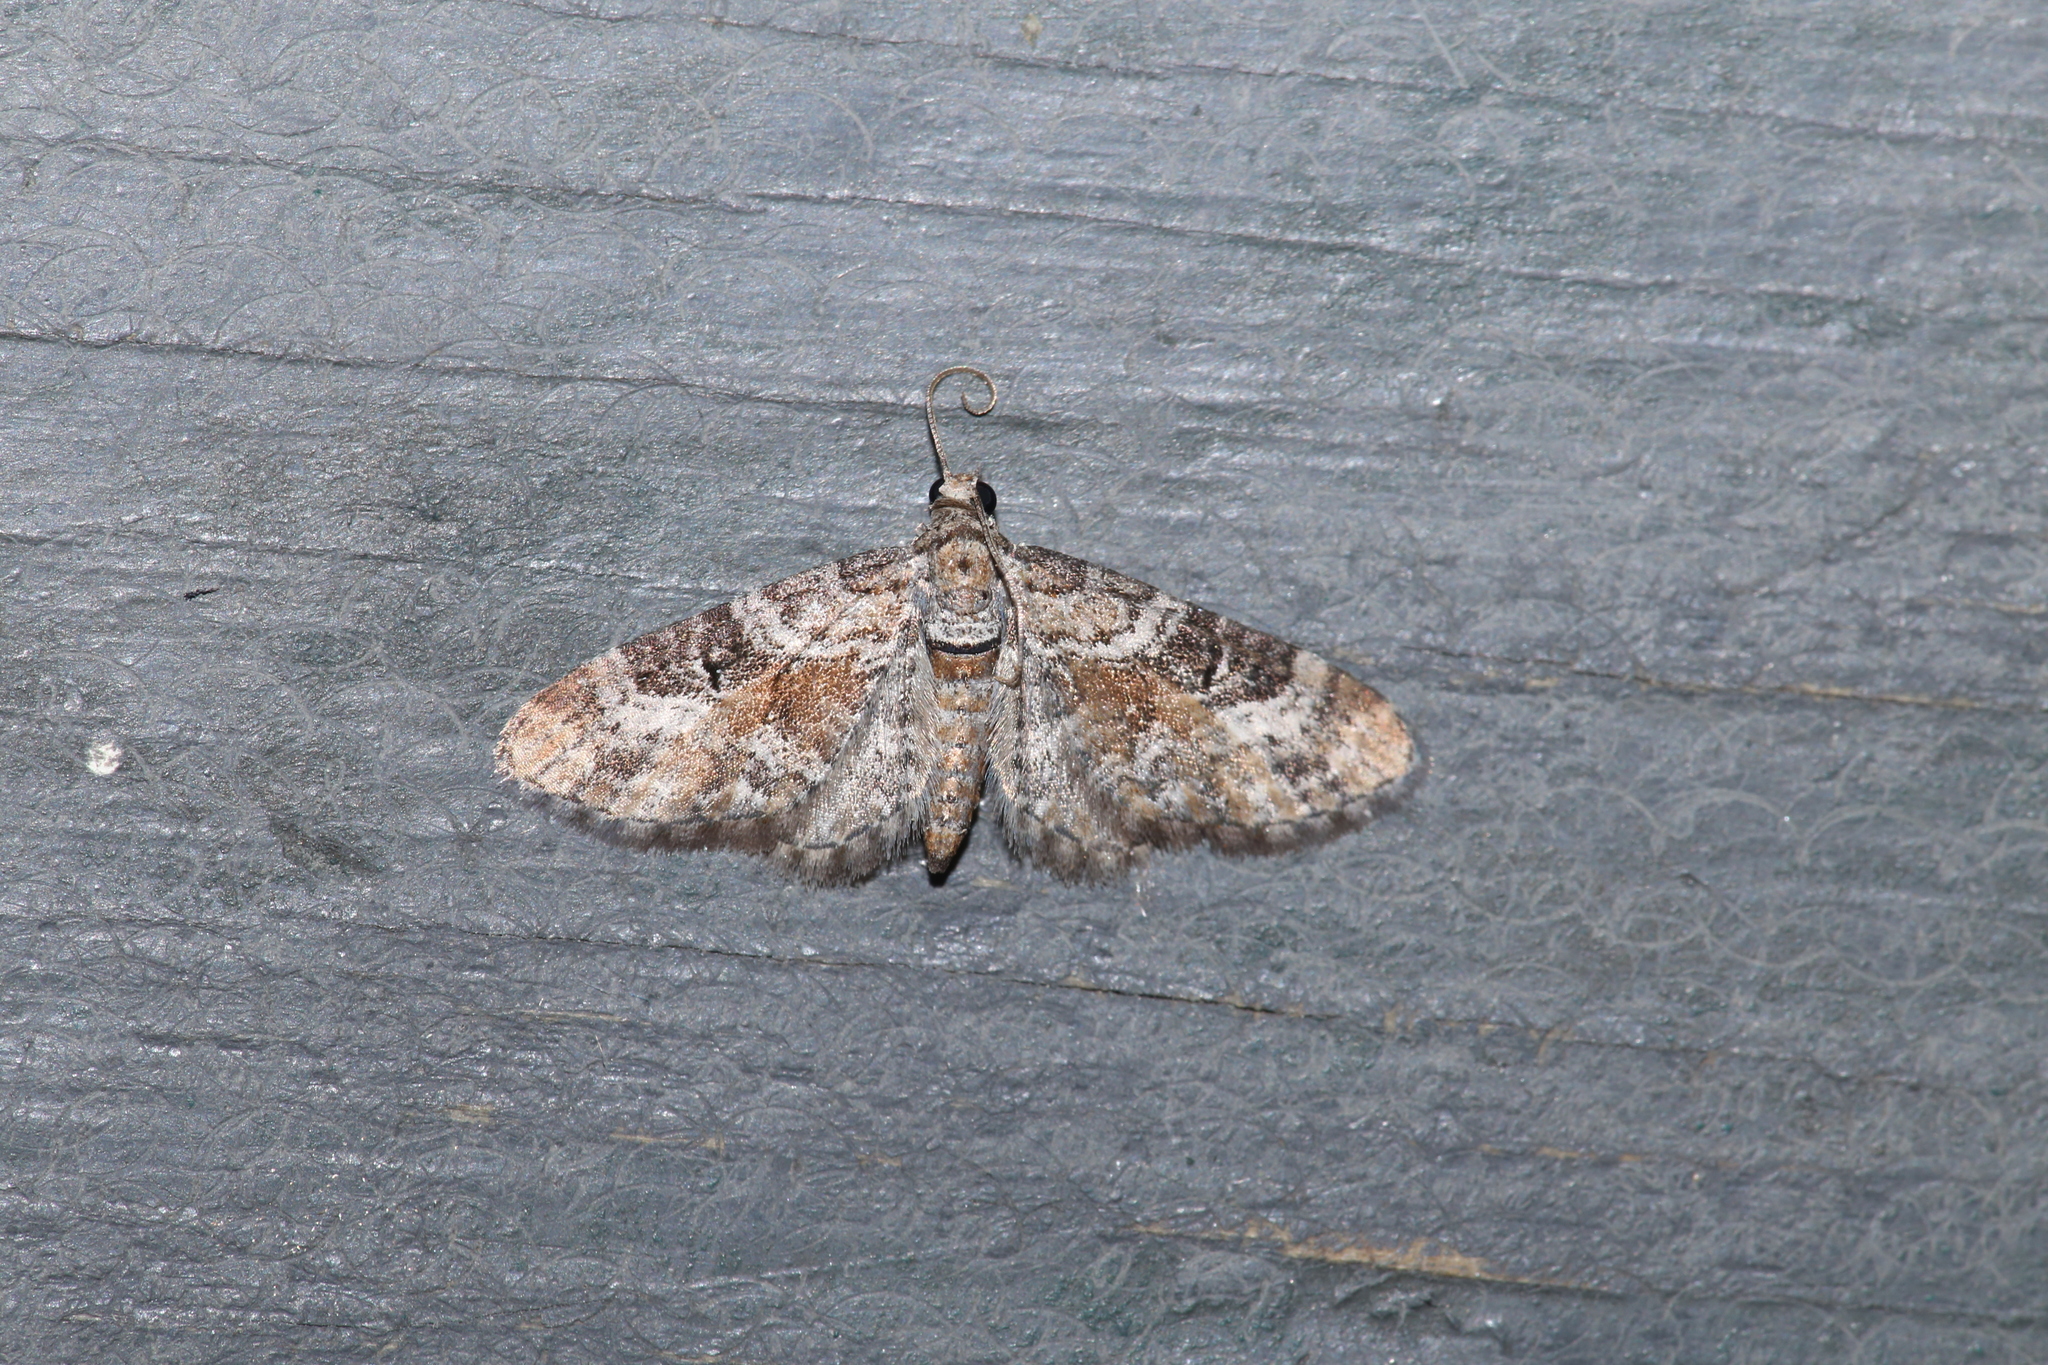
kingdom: Animalia
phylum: Arthropoda
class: Insecta
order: Lepidoptera
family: Geometridae
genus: Eupithecia
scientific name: Eupithecia anticaria
